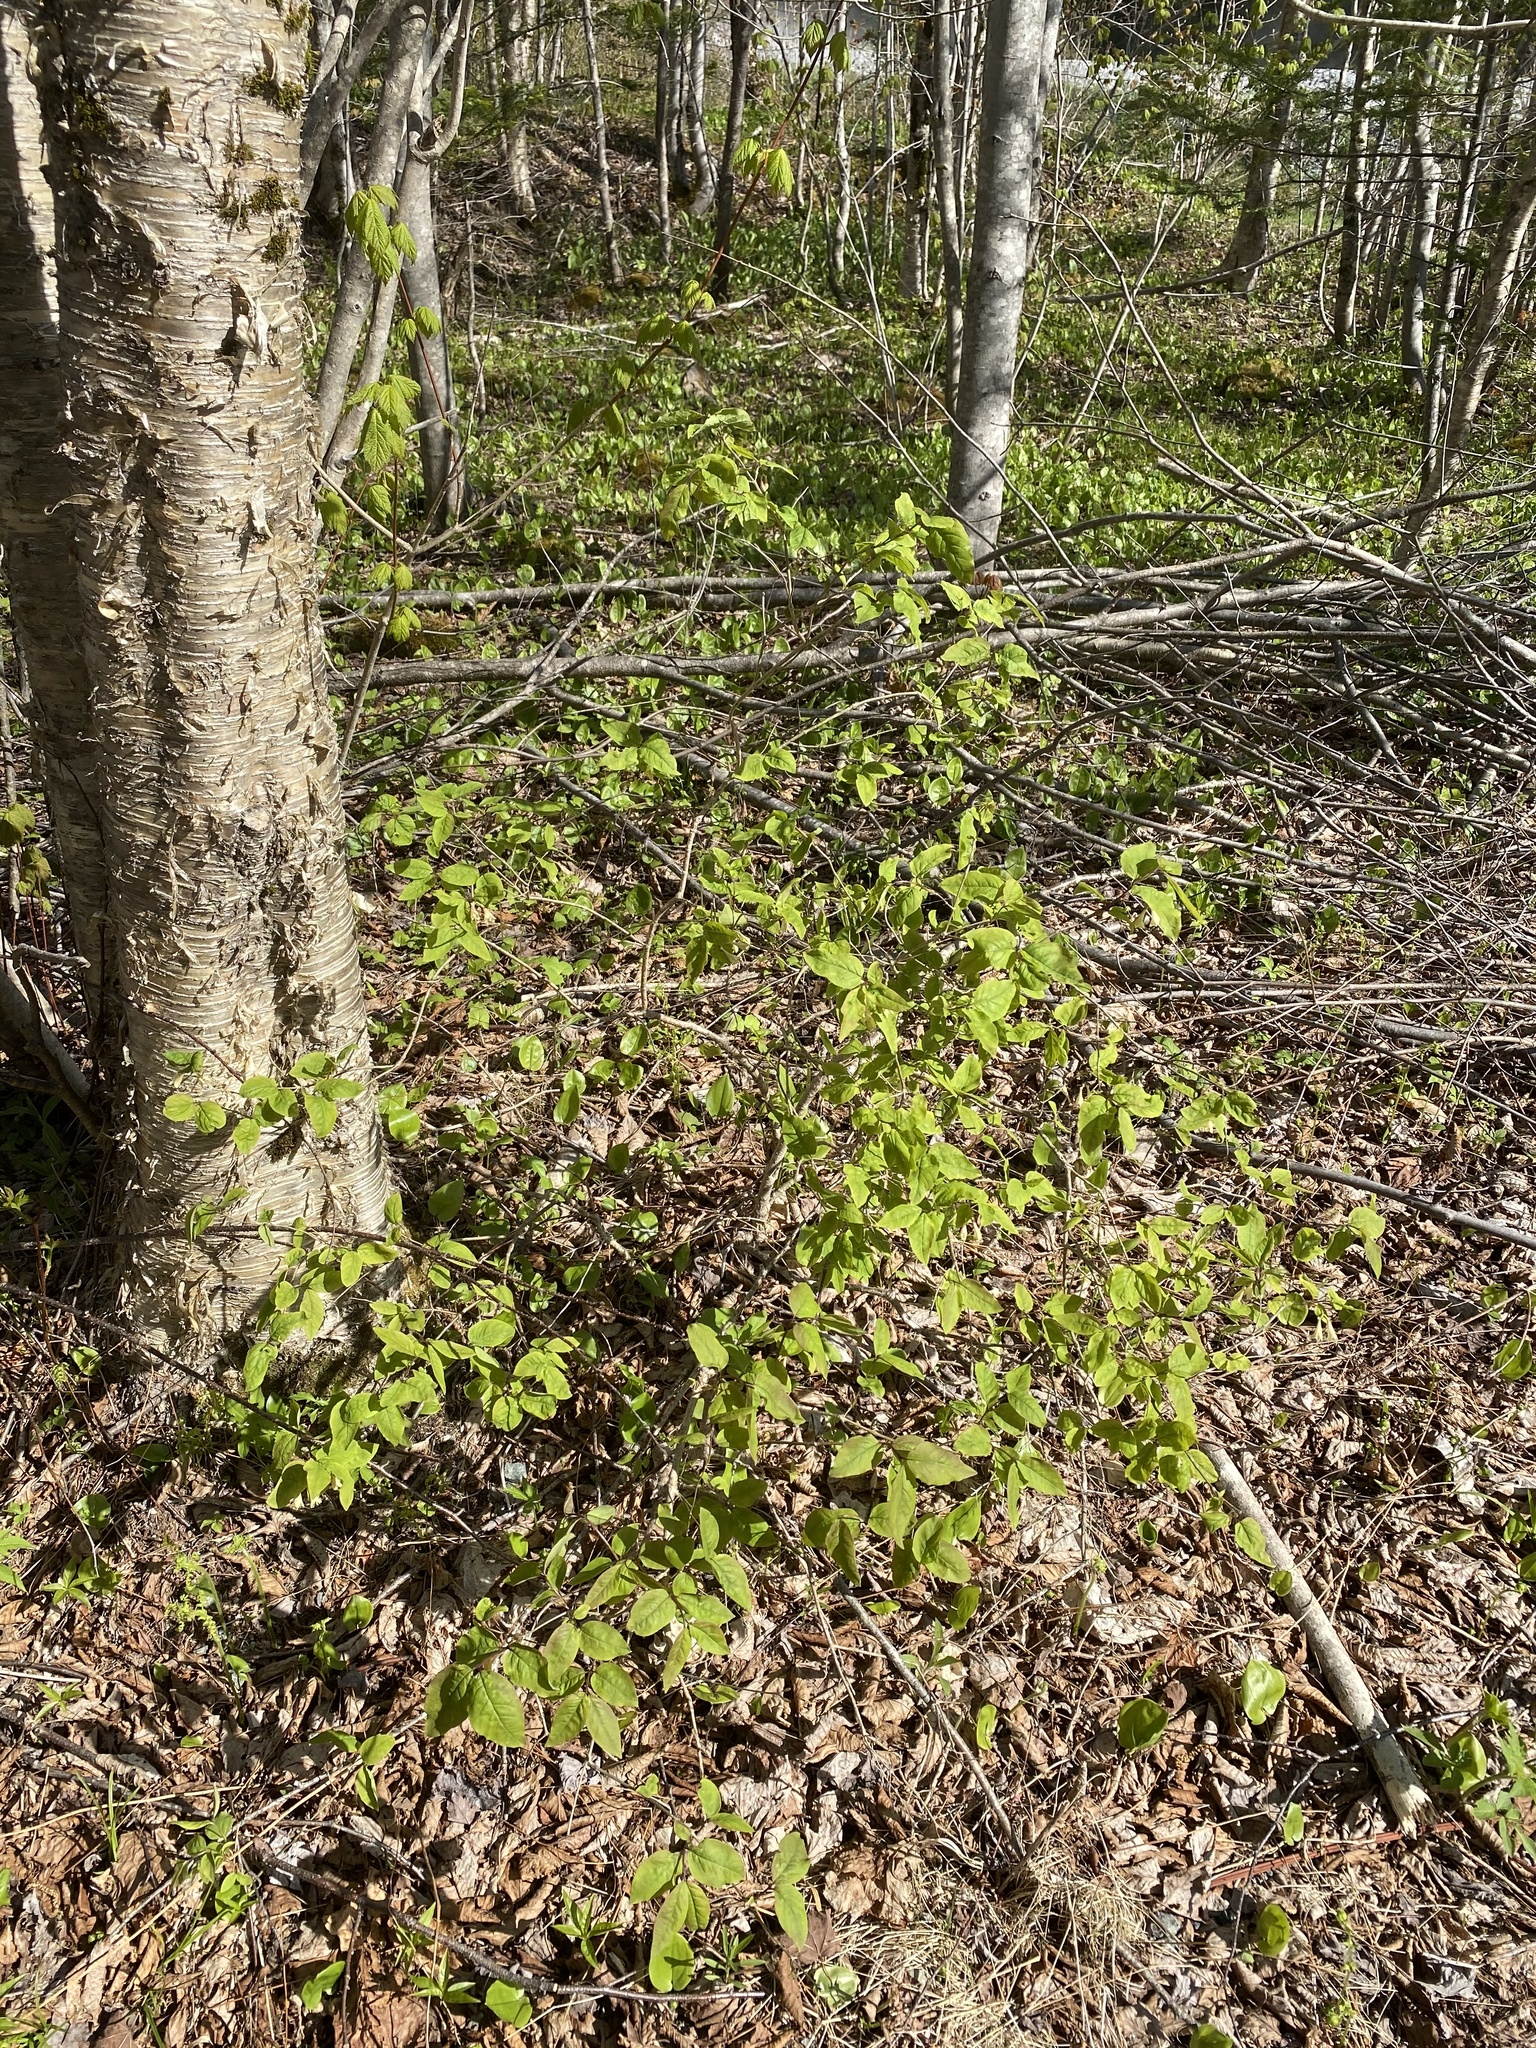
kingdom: Plantae
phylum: Tracheophyta
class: Magnoliopsida
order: Dipsacales
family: Caprifoliaceae
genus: Lonicera
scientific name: Lonicera canadensis
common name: American fly-honeysuckle
